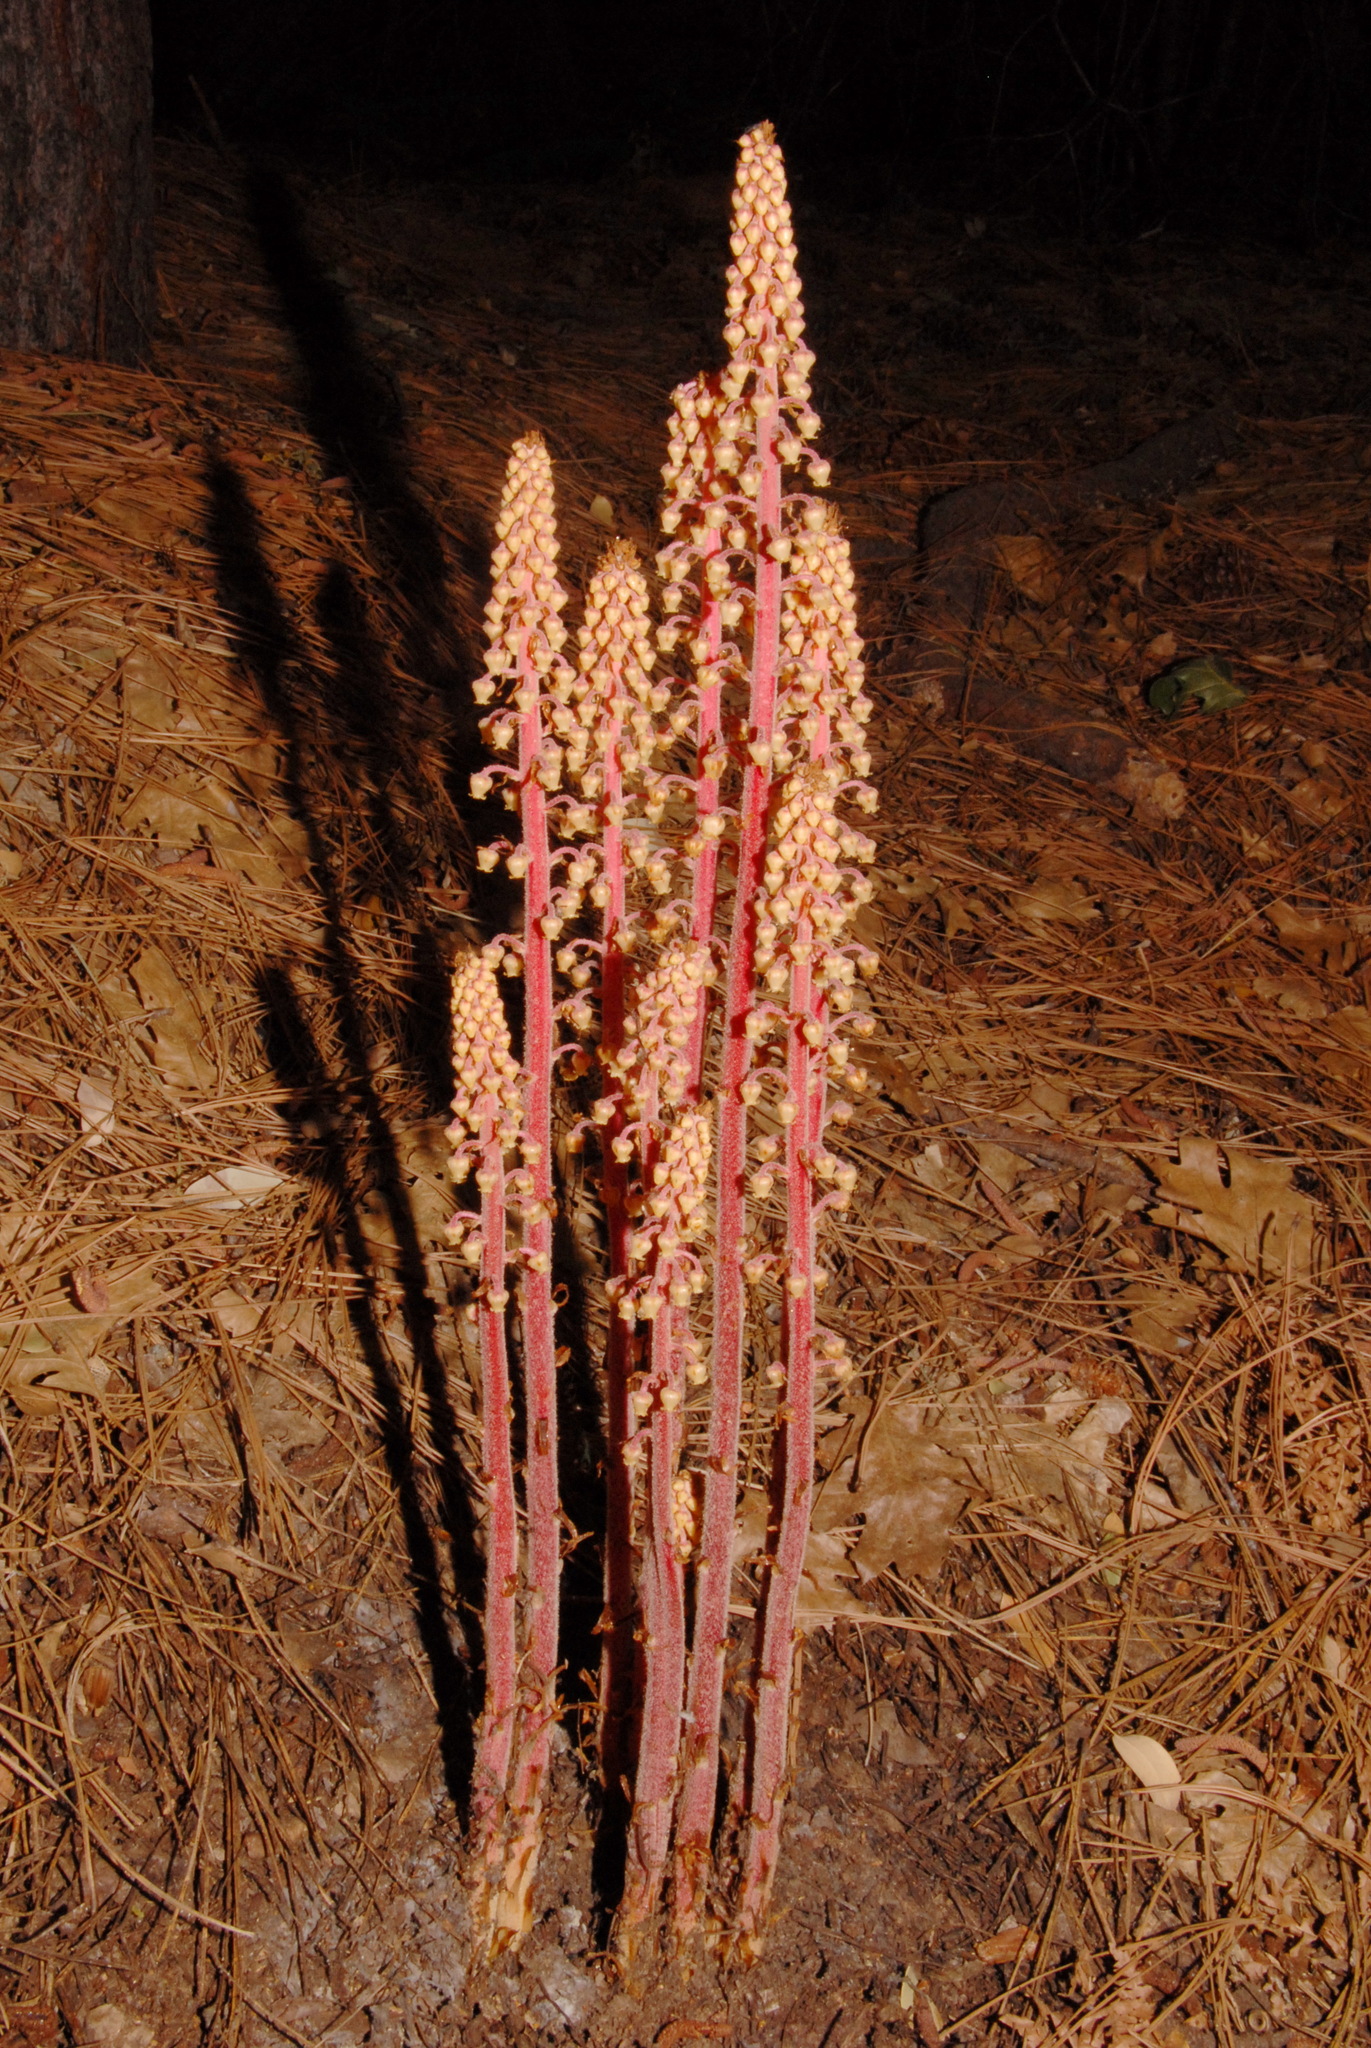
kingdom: Plantae
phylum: Tracheophyta
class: Magnoliopsida
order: Ericales
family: Ericaceae
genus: Pterospora
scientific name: Pterospora andromedea
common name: Giant bird's-nest
